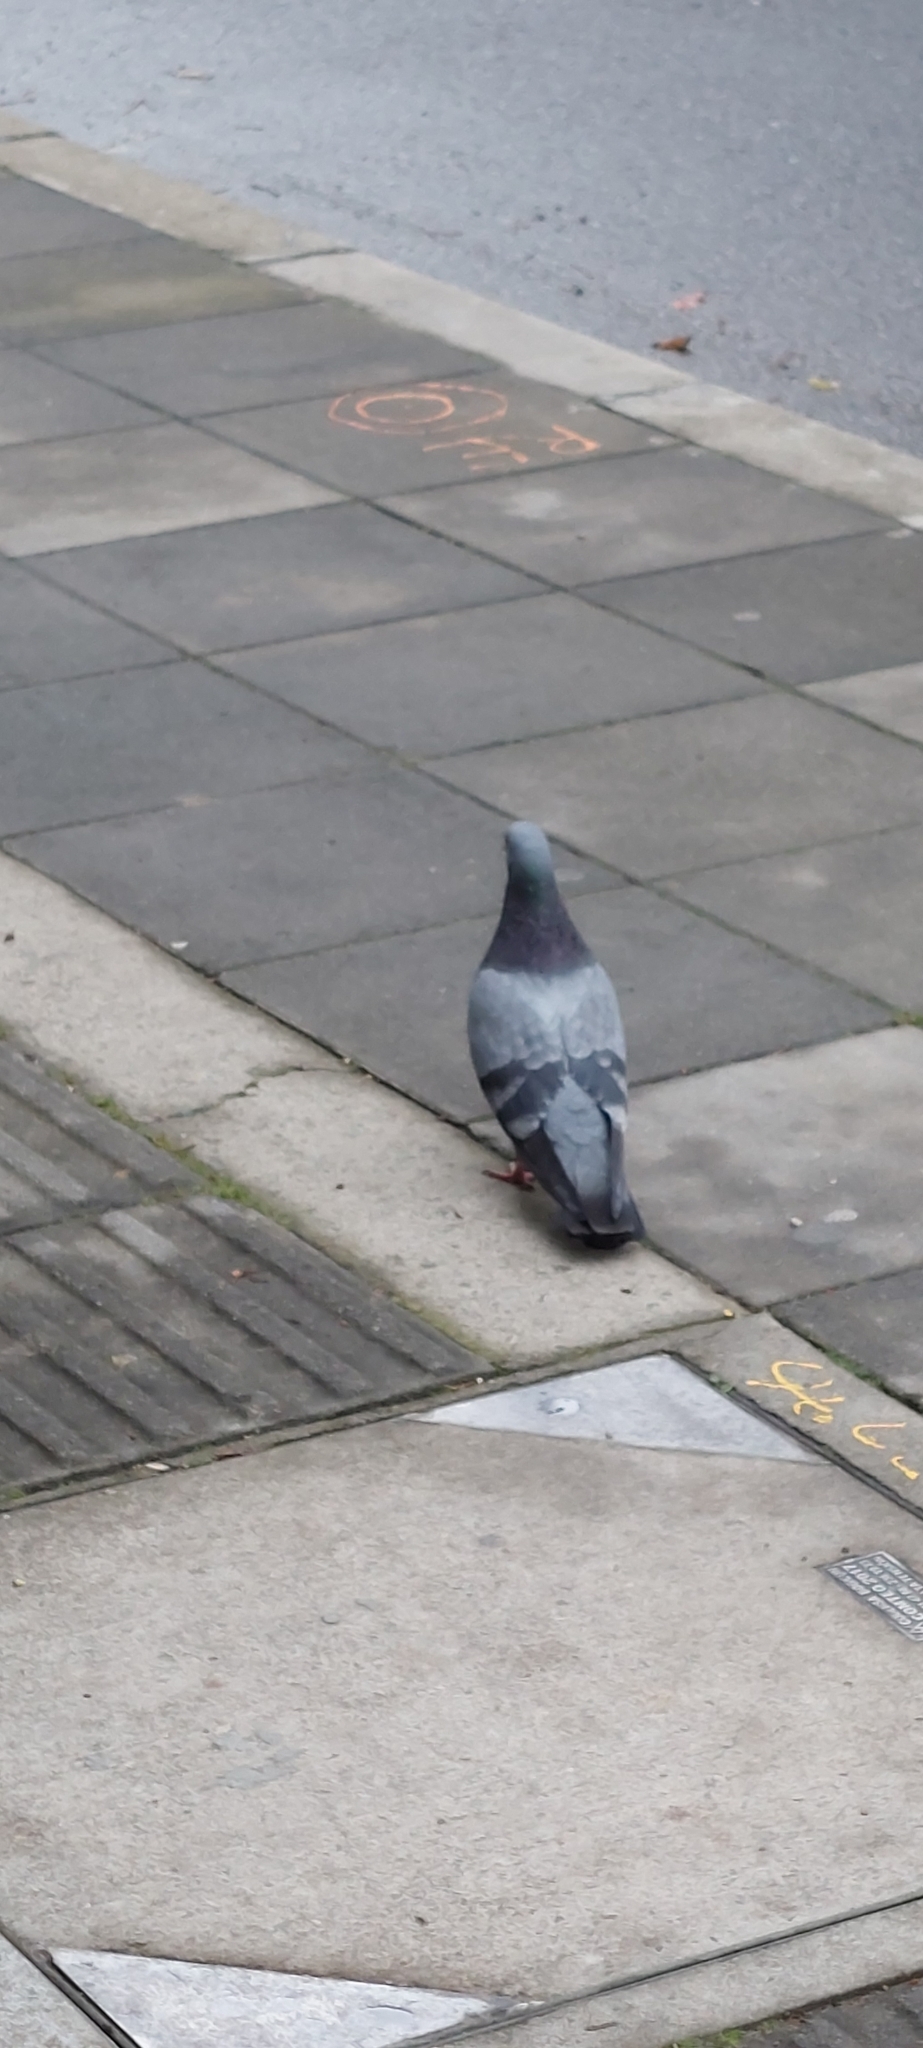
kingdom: Animalia
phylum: Chordata
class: Aves
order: Columbiformes
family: Columbidae
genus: Columba
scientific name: Columba livia
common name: Rock pigeon
